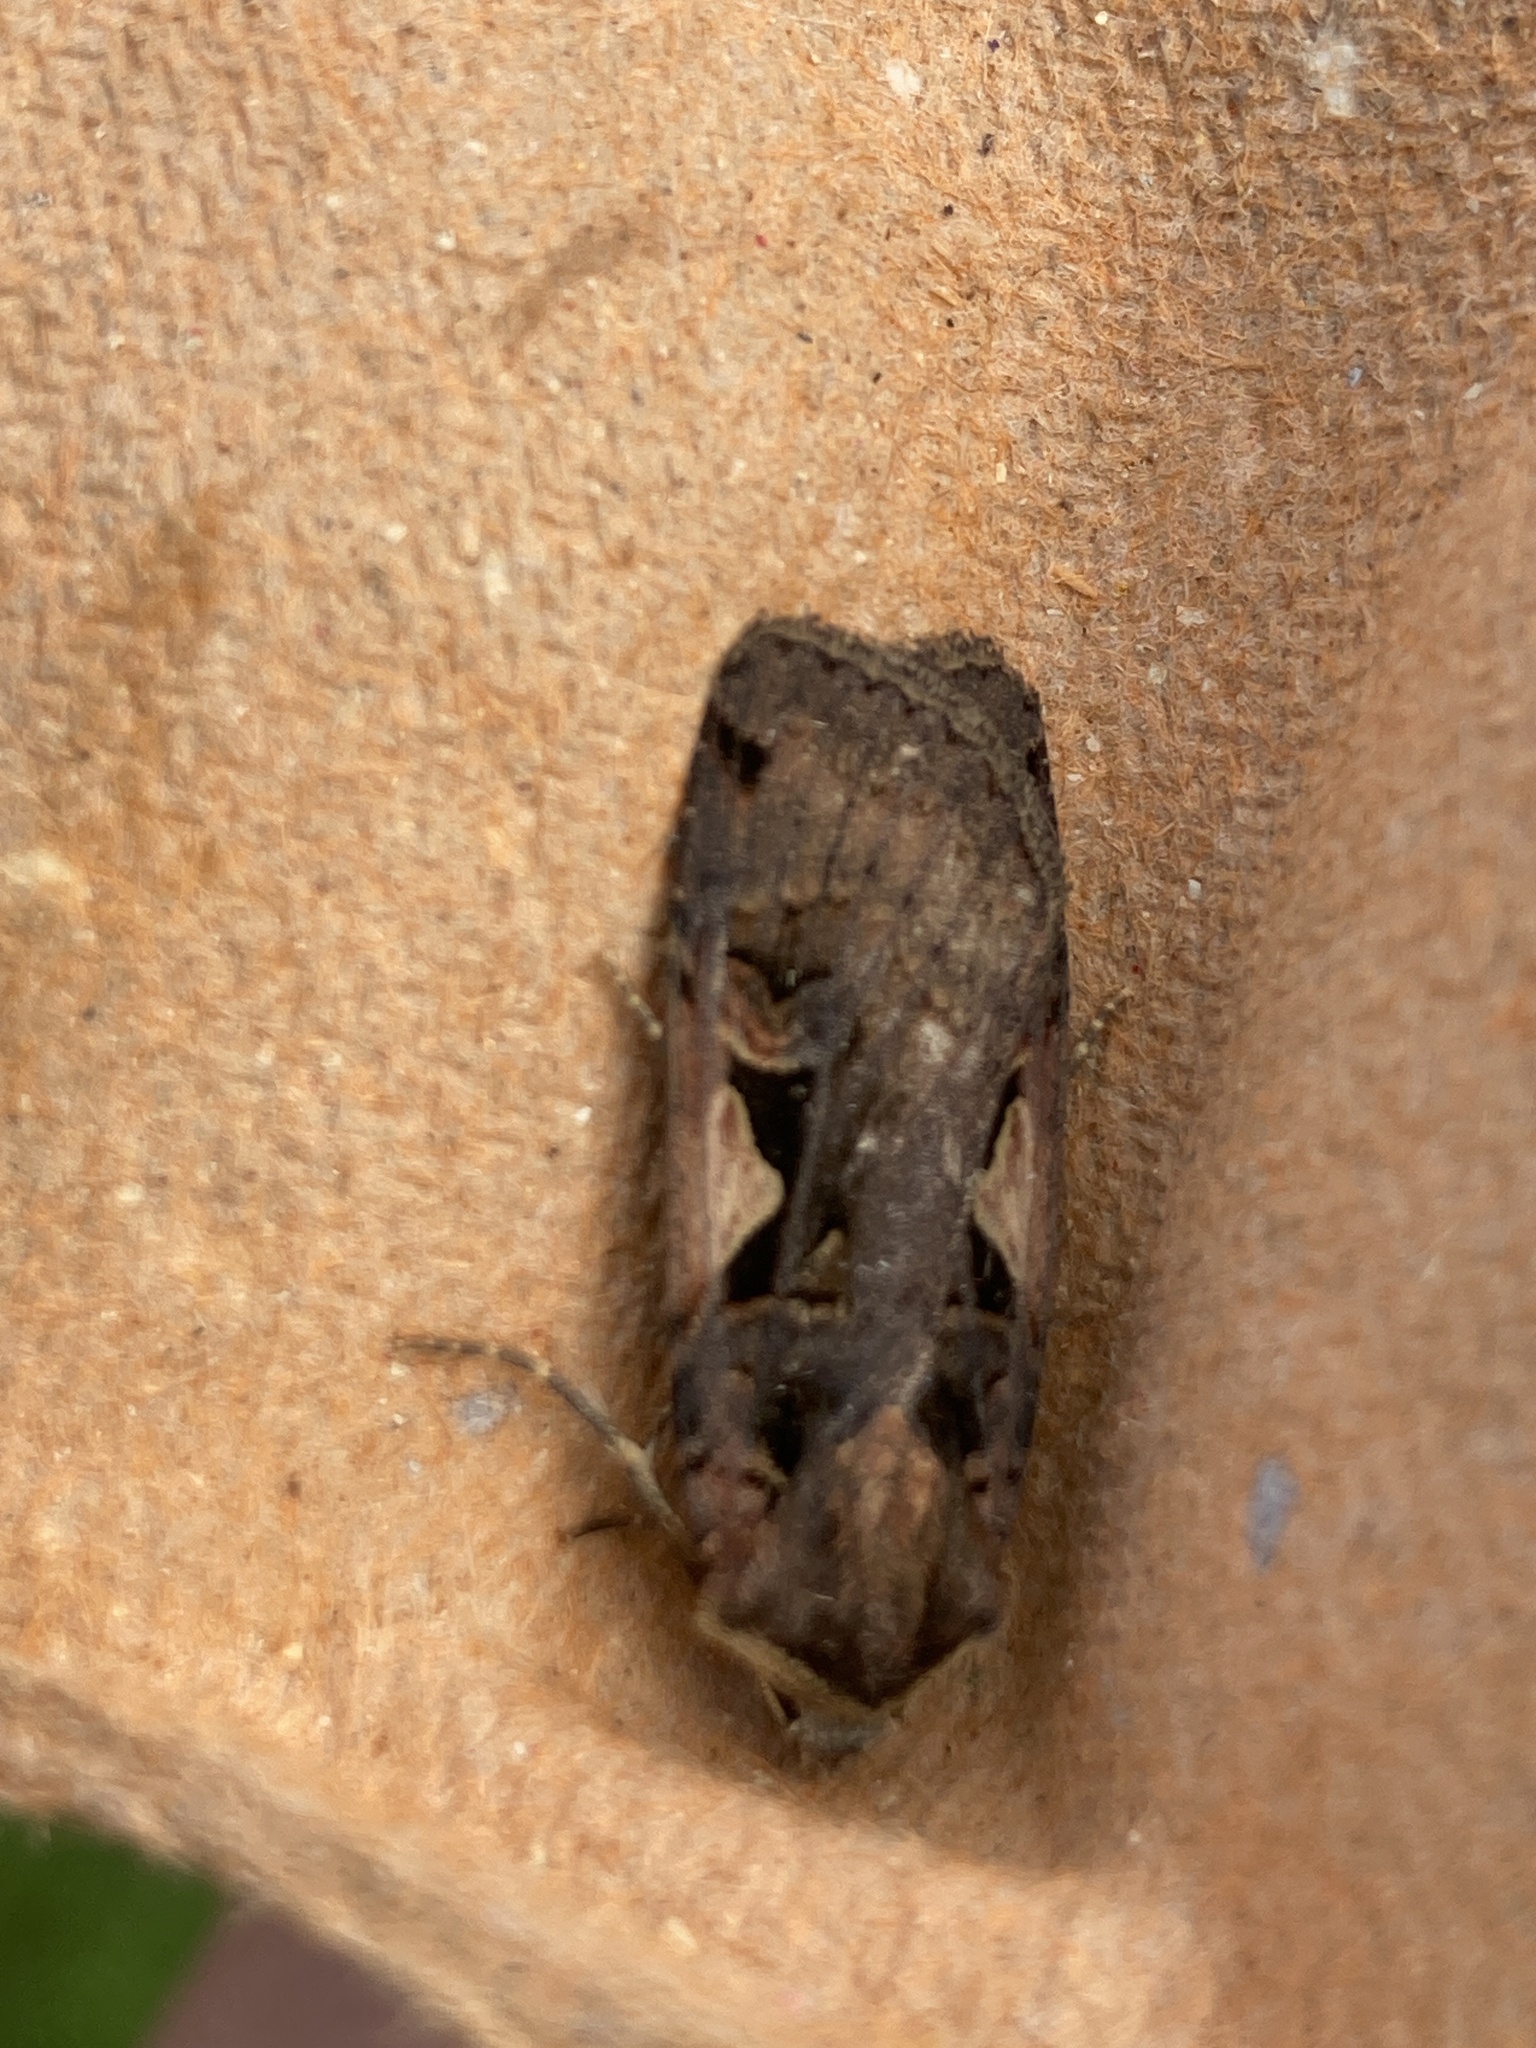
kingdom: Animalia
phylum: Arthropoda
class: Insecta
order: Lepidoptera
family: Noctuidae
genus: Xestia
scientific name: Xestia c-nigrum
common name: Setaceous hebrew character
